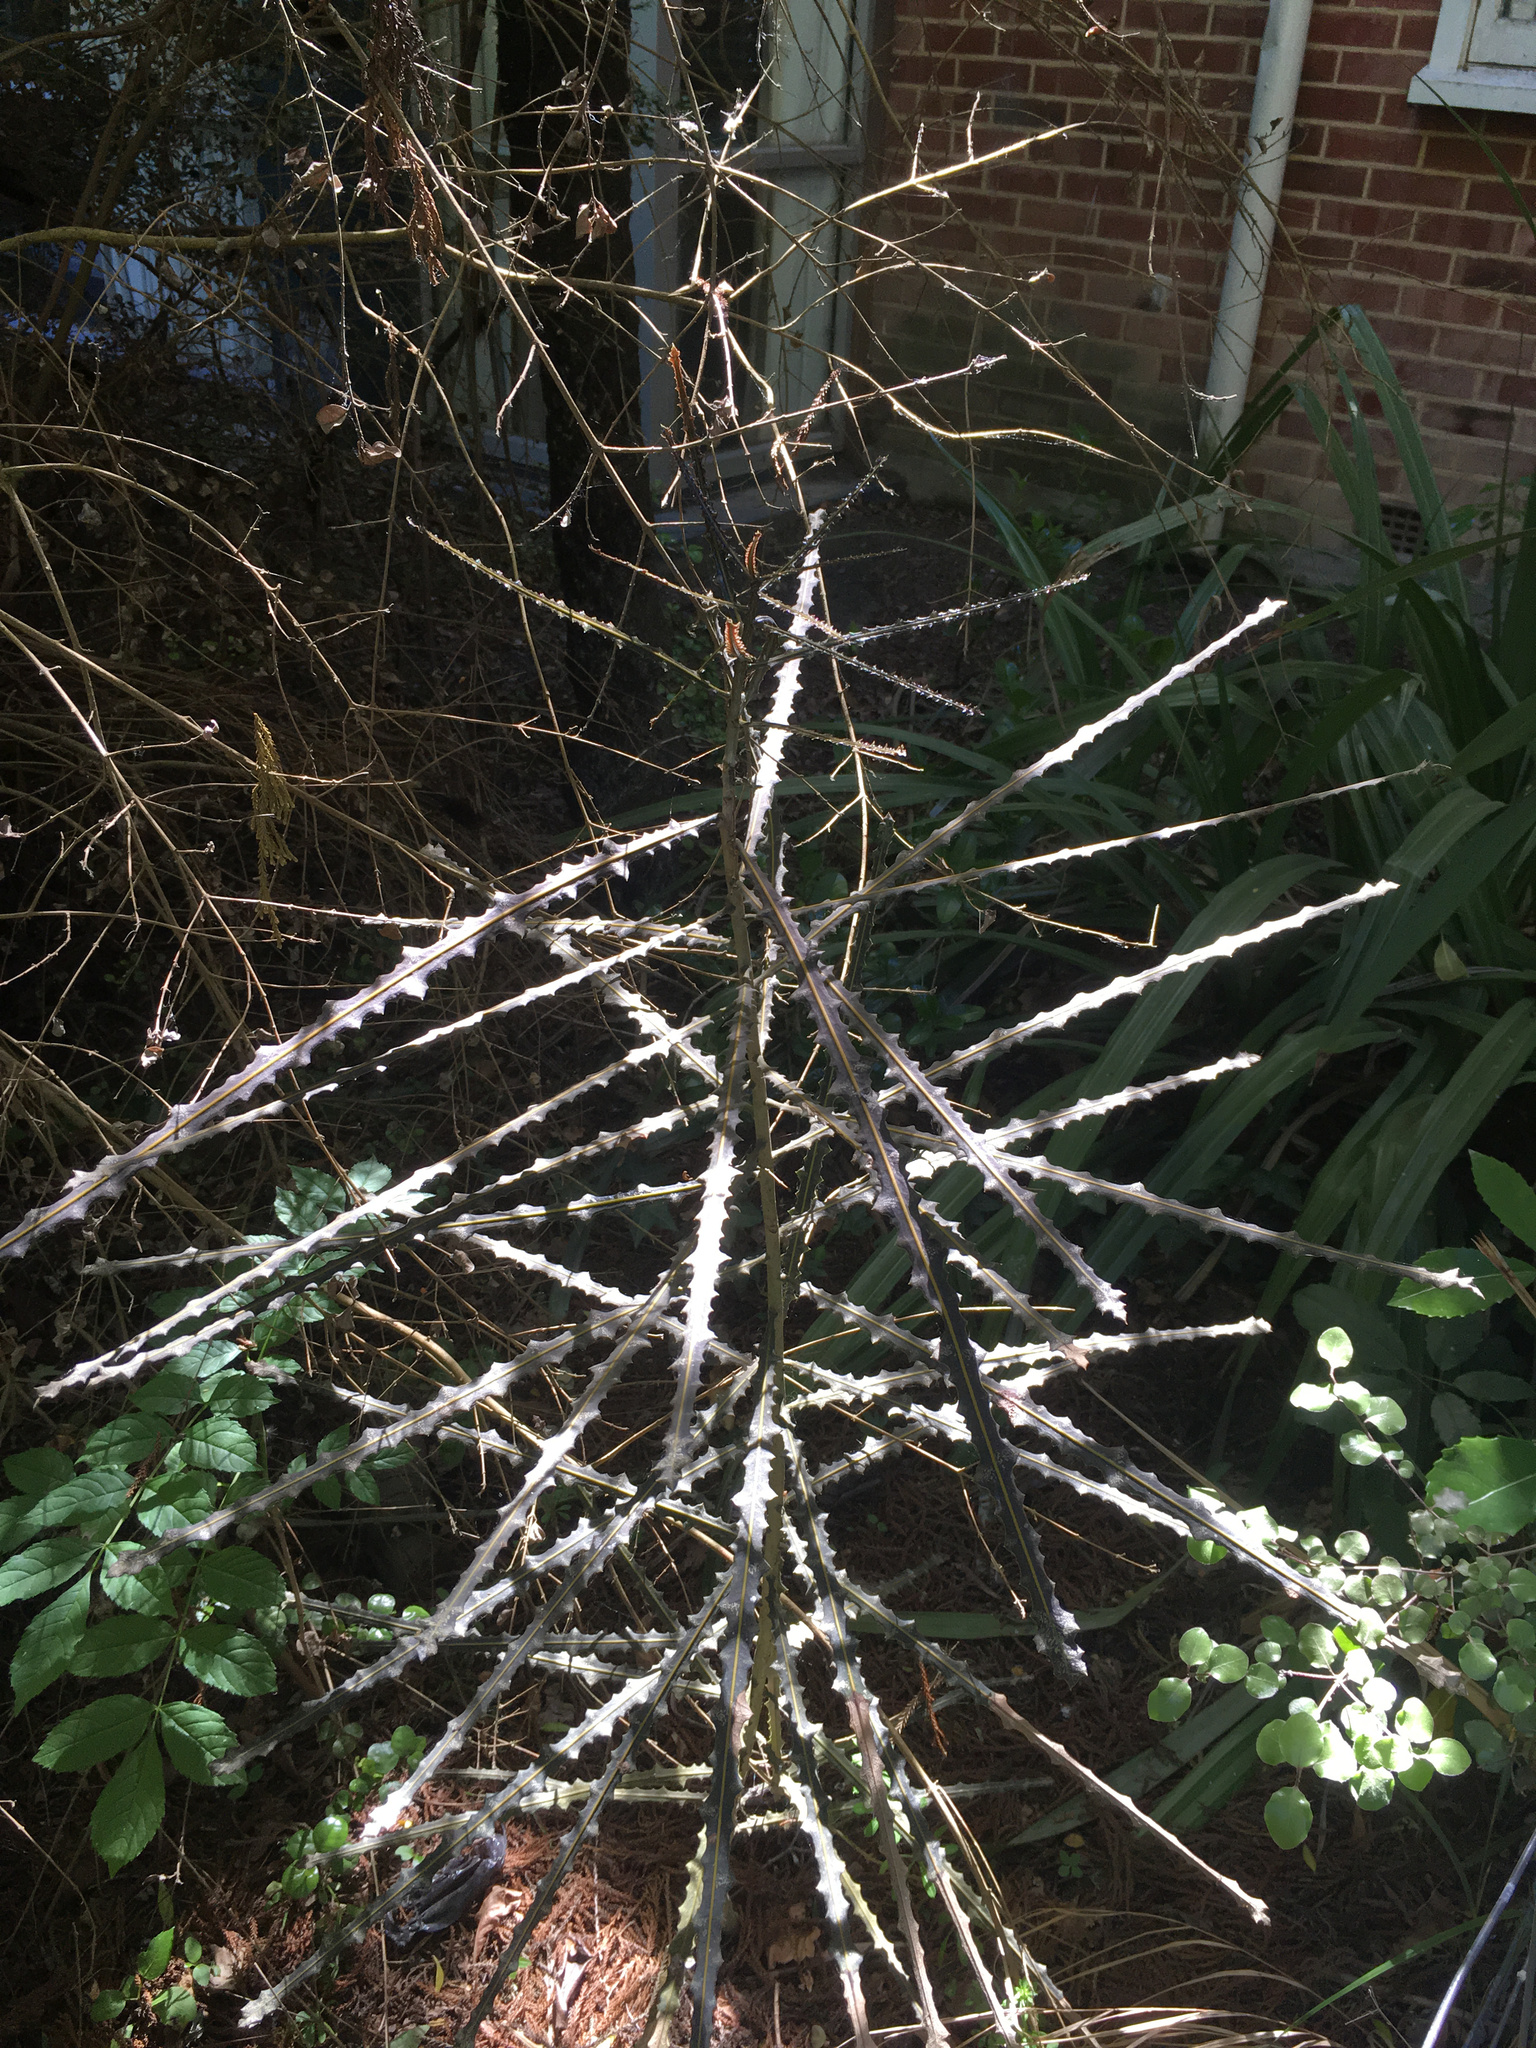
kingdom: Plantae
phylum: Tracheophyta
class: Magnoliopsida
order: Apiales
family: Araliaceae
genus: Pseudopanax
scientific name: Pseudopanax ferox
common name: Fierce lancewood
